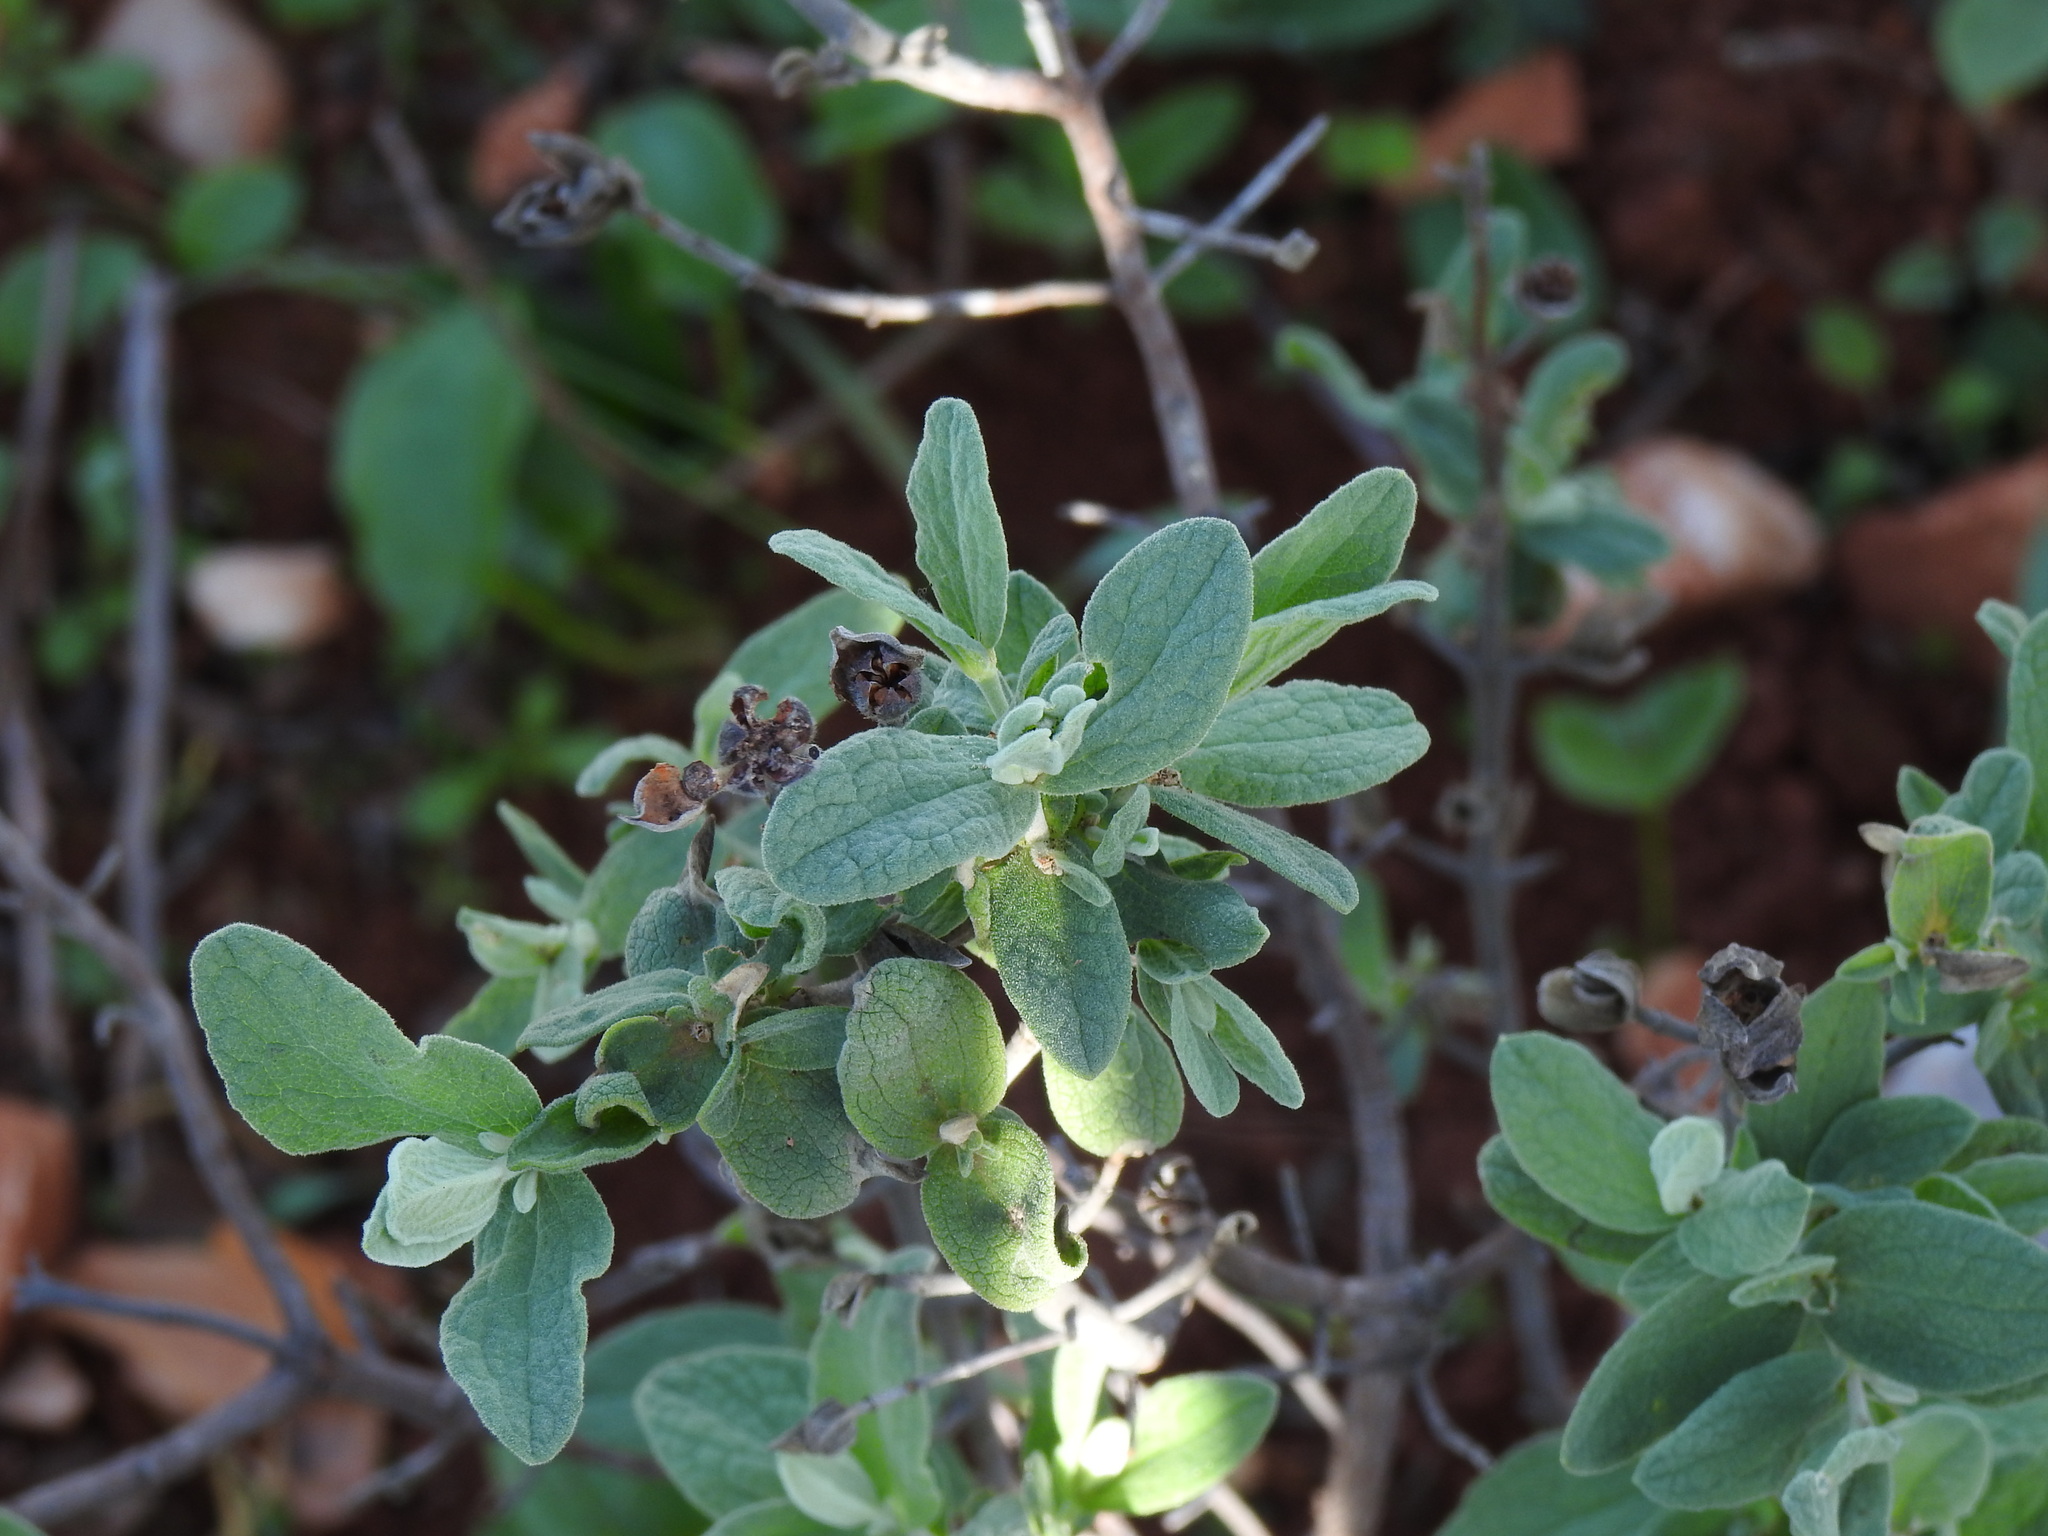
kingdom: Plantae
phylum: Tracheophyta
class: Magnoliopsida
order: Malvales
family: Cistaceae
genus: Cistus
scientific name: Cistus albidus
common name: White-leaf rock-rose
